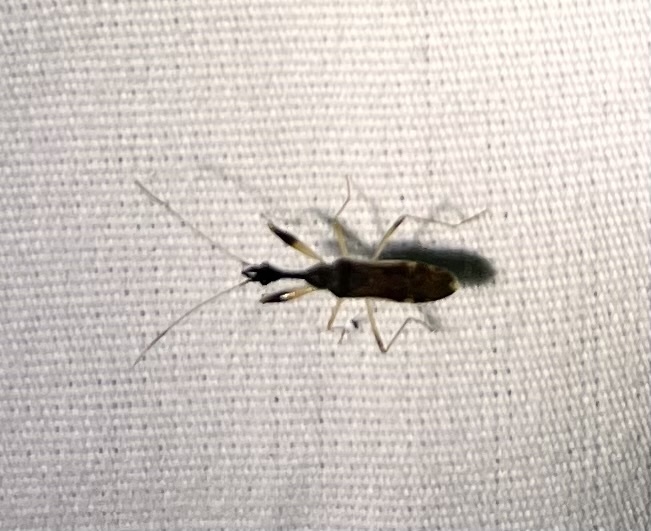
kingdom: Animalia
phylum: Arthropoda
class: Insecta
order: Hemiptera
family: Rhyparochromidae
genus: Myodocha
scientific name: Myodocha serripes
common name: Long-necked seed bug
